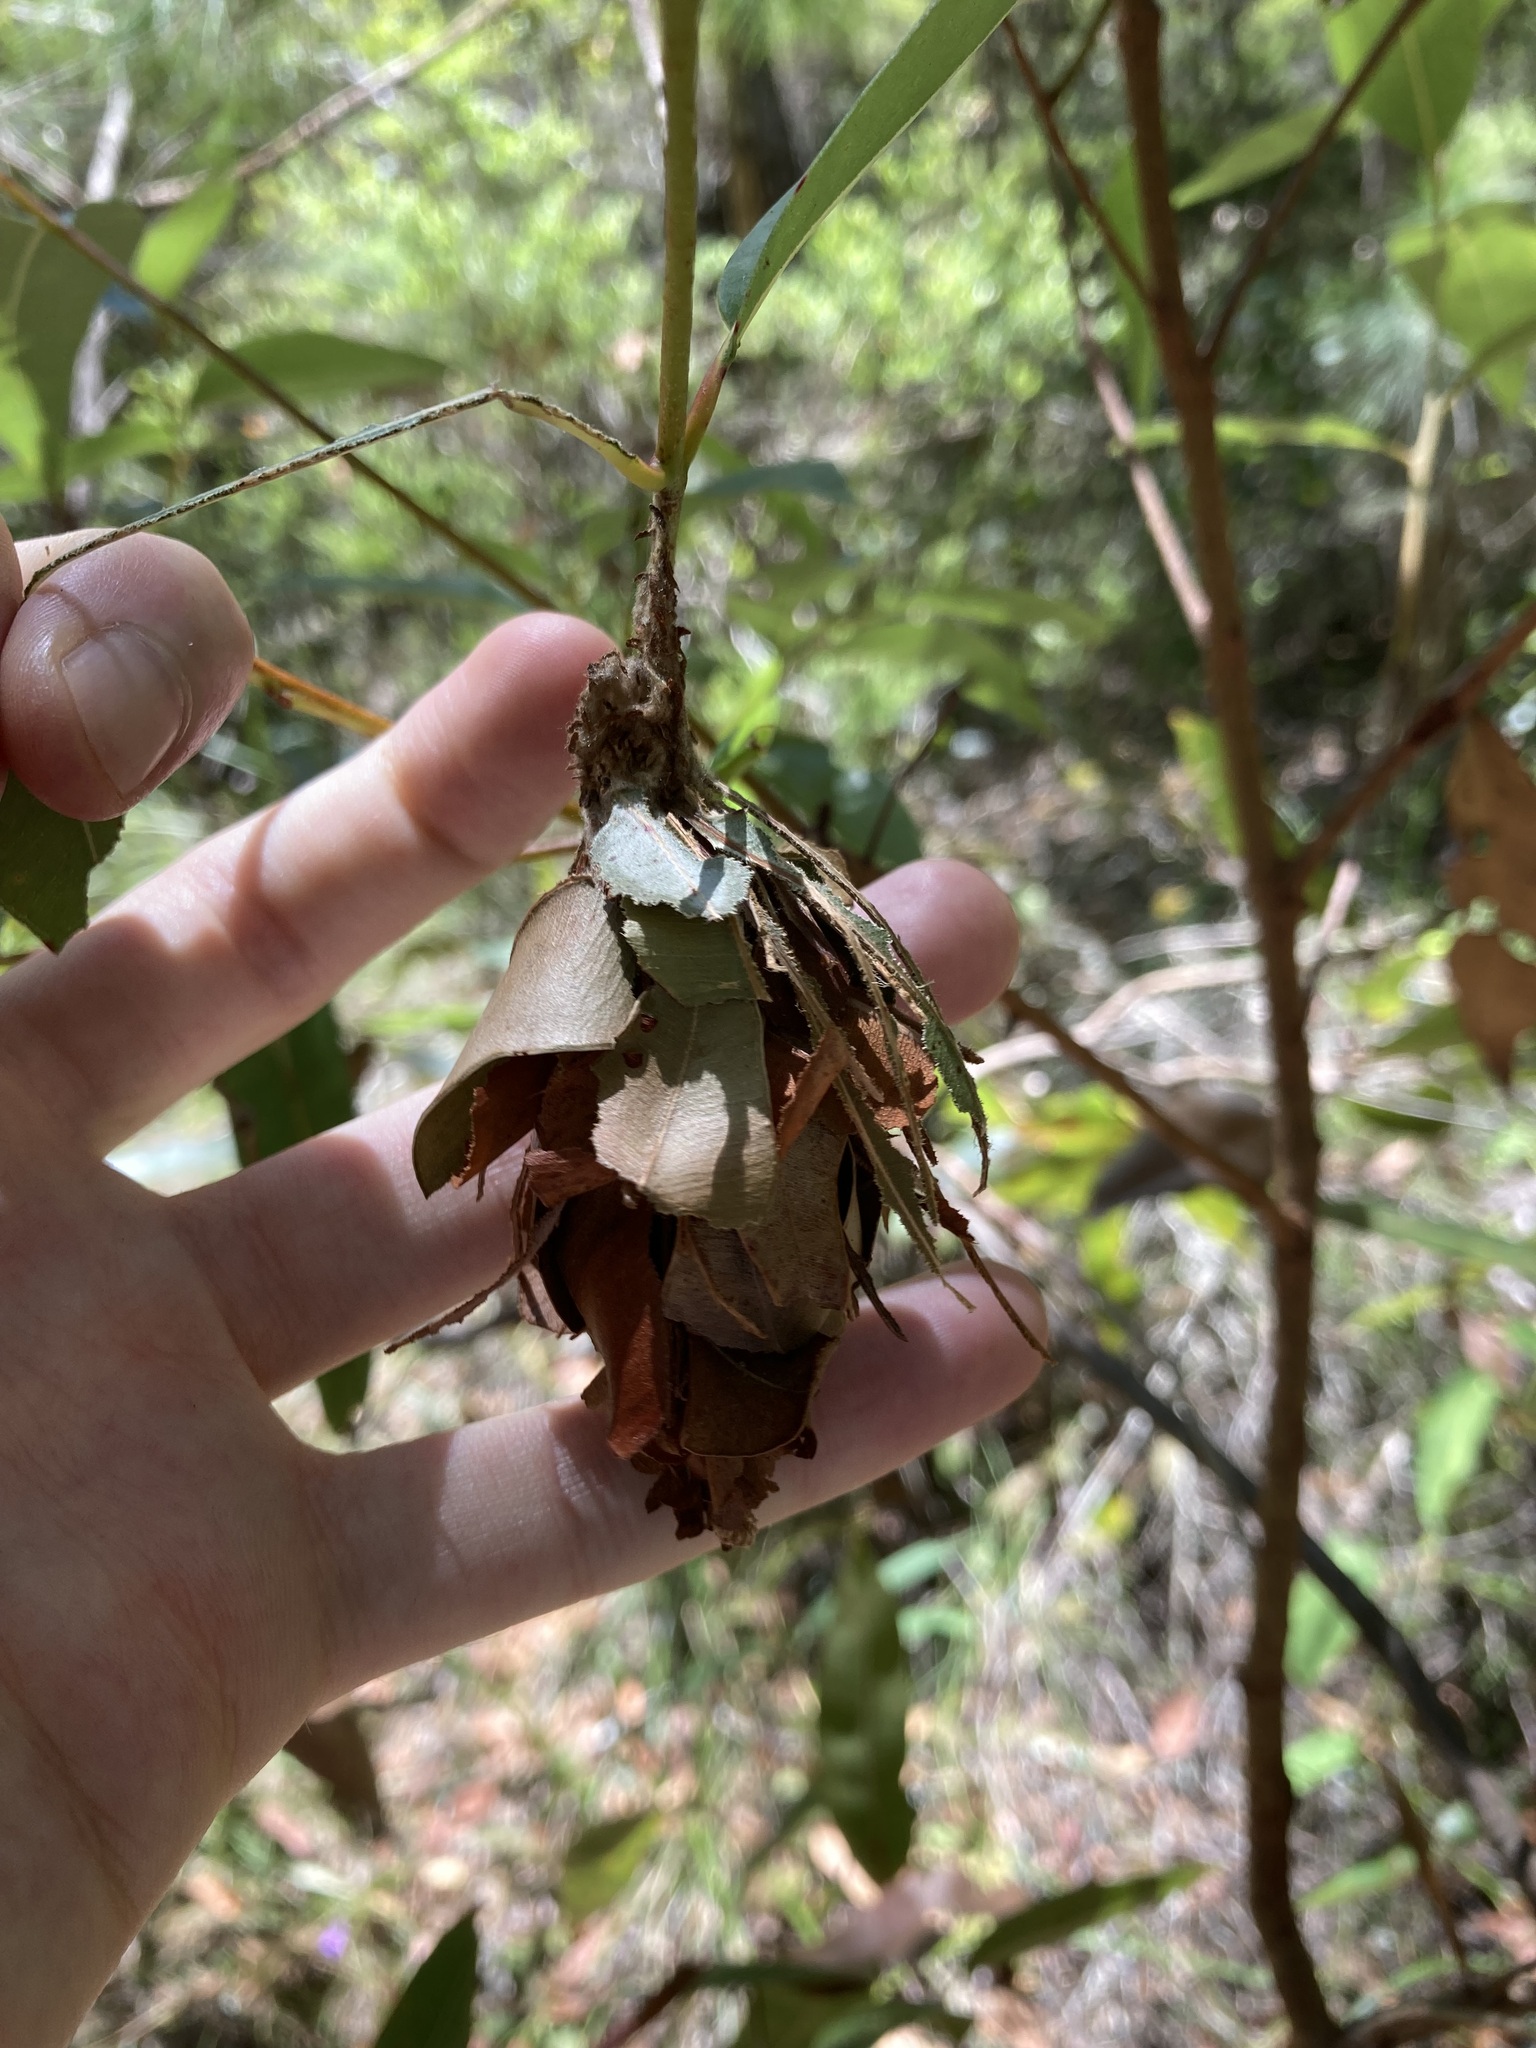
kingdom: Animalia
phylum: Arthropoda
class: Insecta
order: Lepidoptera
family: Psychidae
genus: Hyalarcta
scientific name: Hyalarcta huebneri
